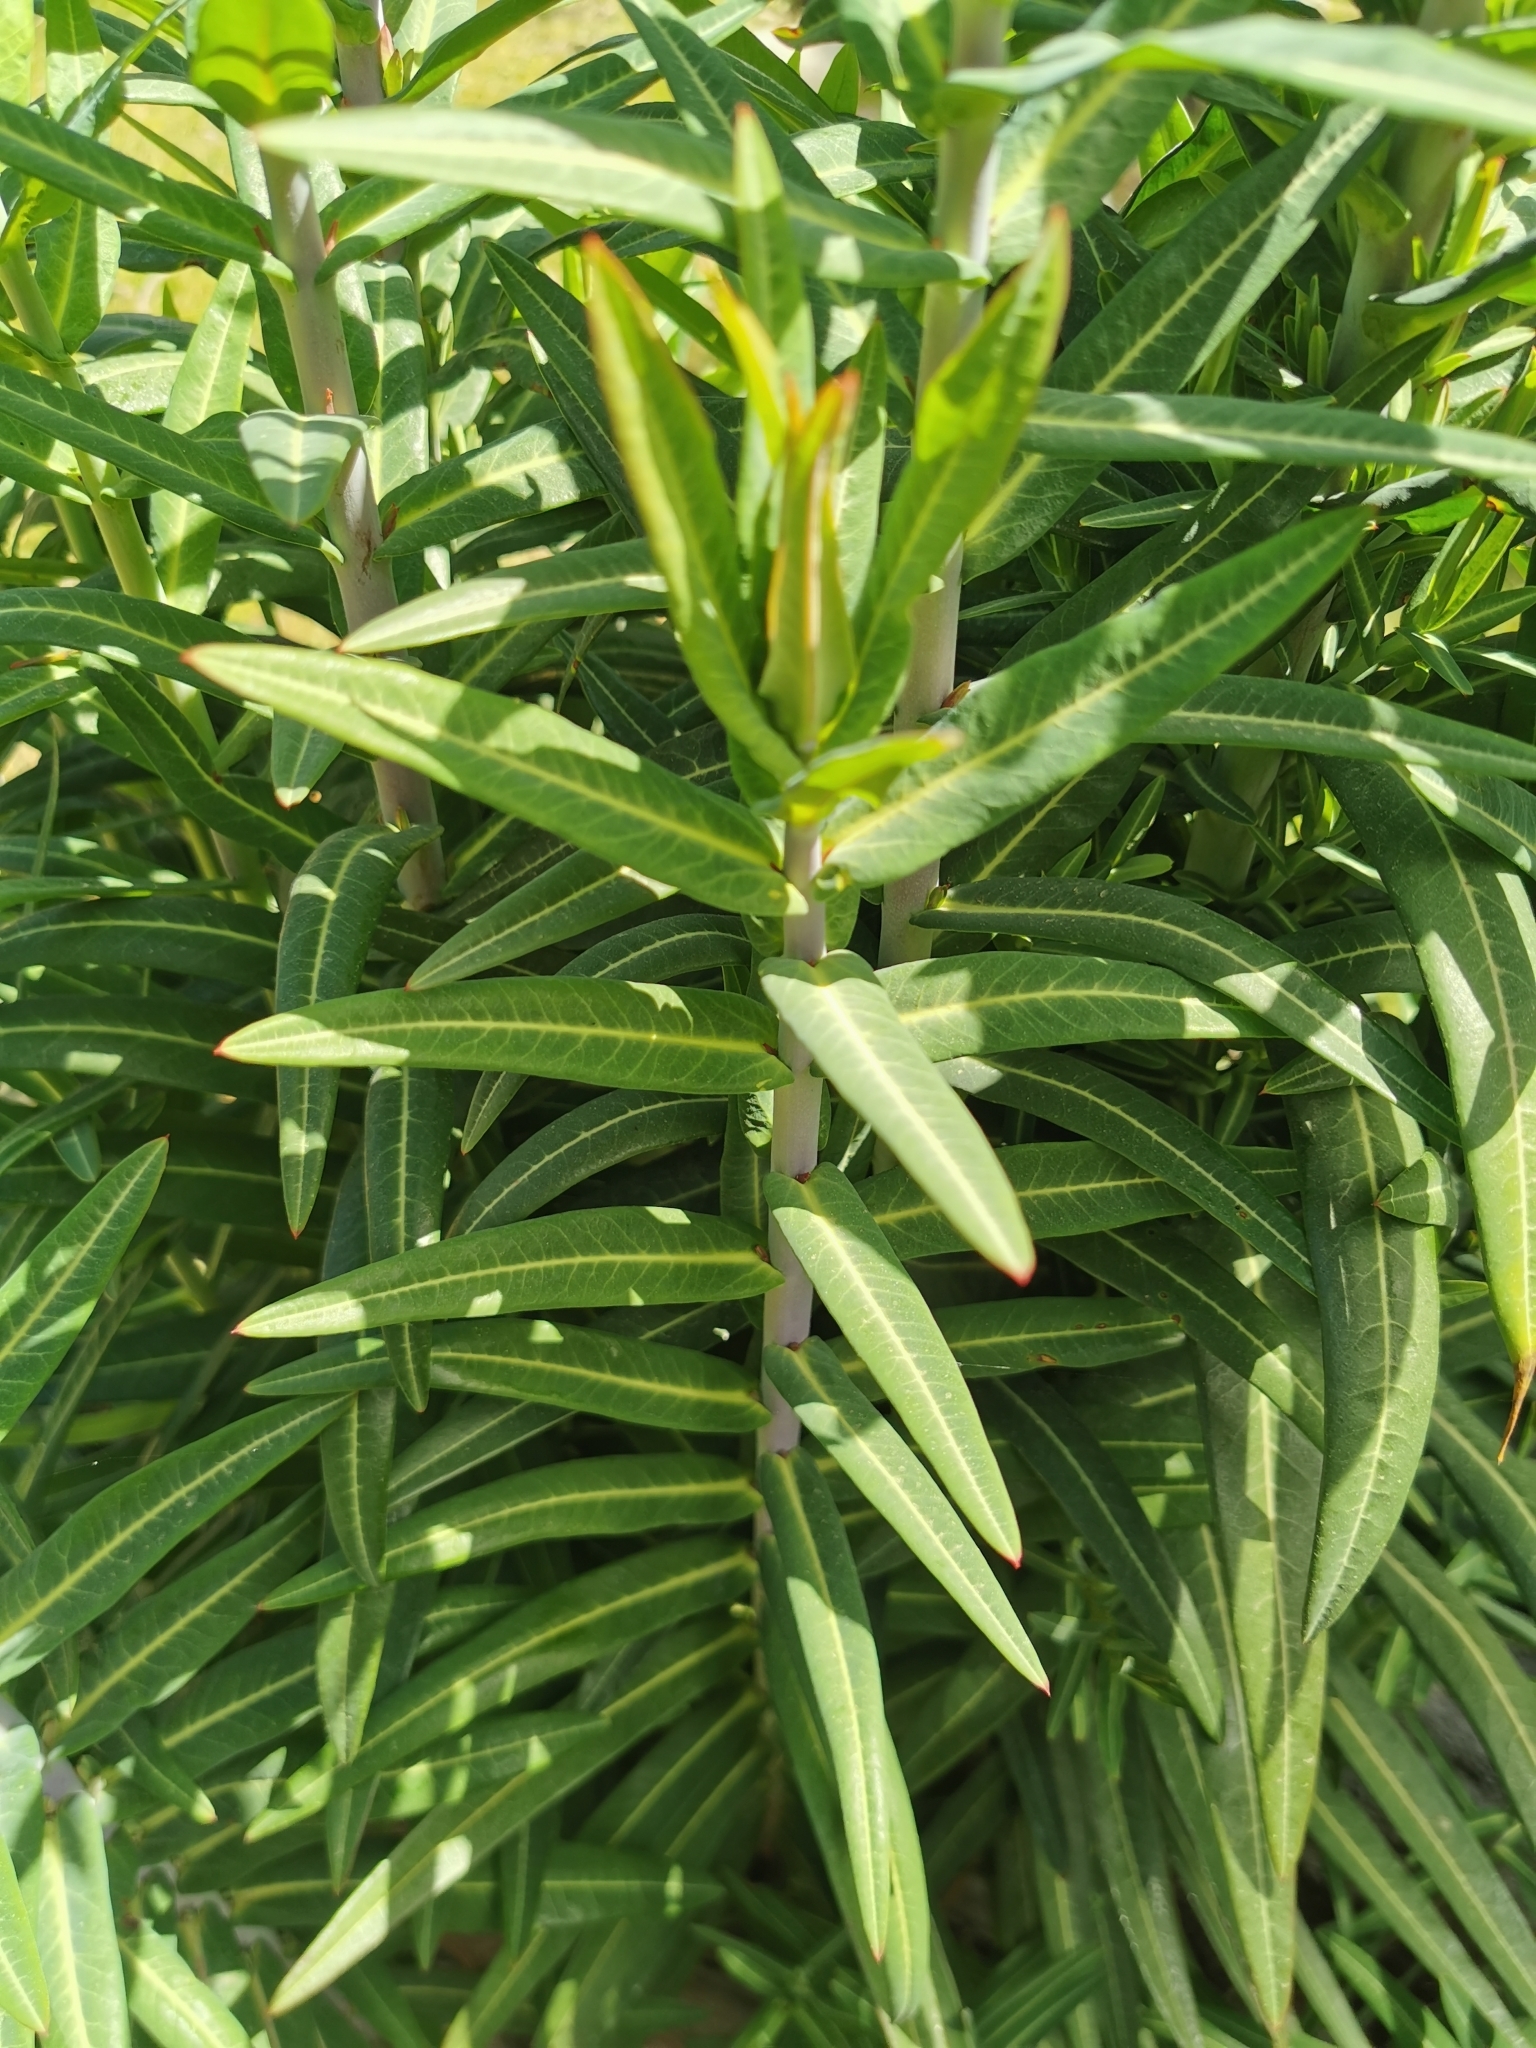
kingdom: Plantae
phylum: Tracheophyta
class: Magnoliopsida
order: Malpighiales
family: Euphorbiaceae
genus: Euphorbia
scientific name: Euphorbia lathyris
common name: Caper spurge
